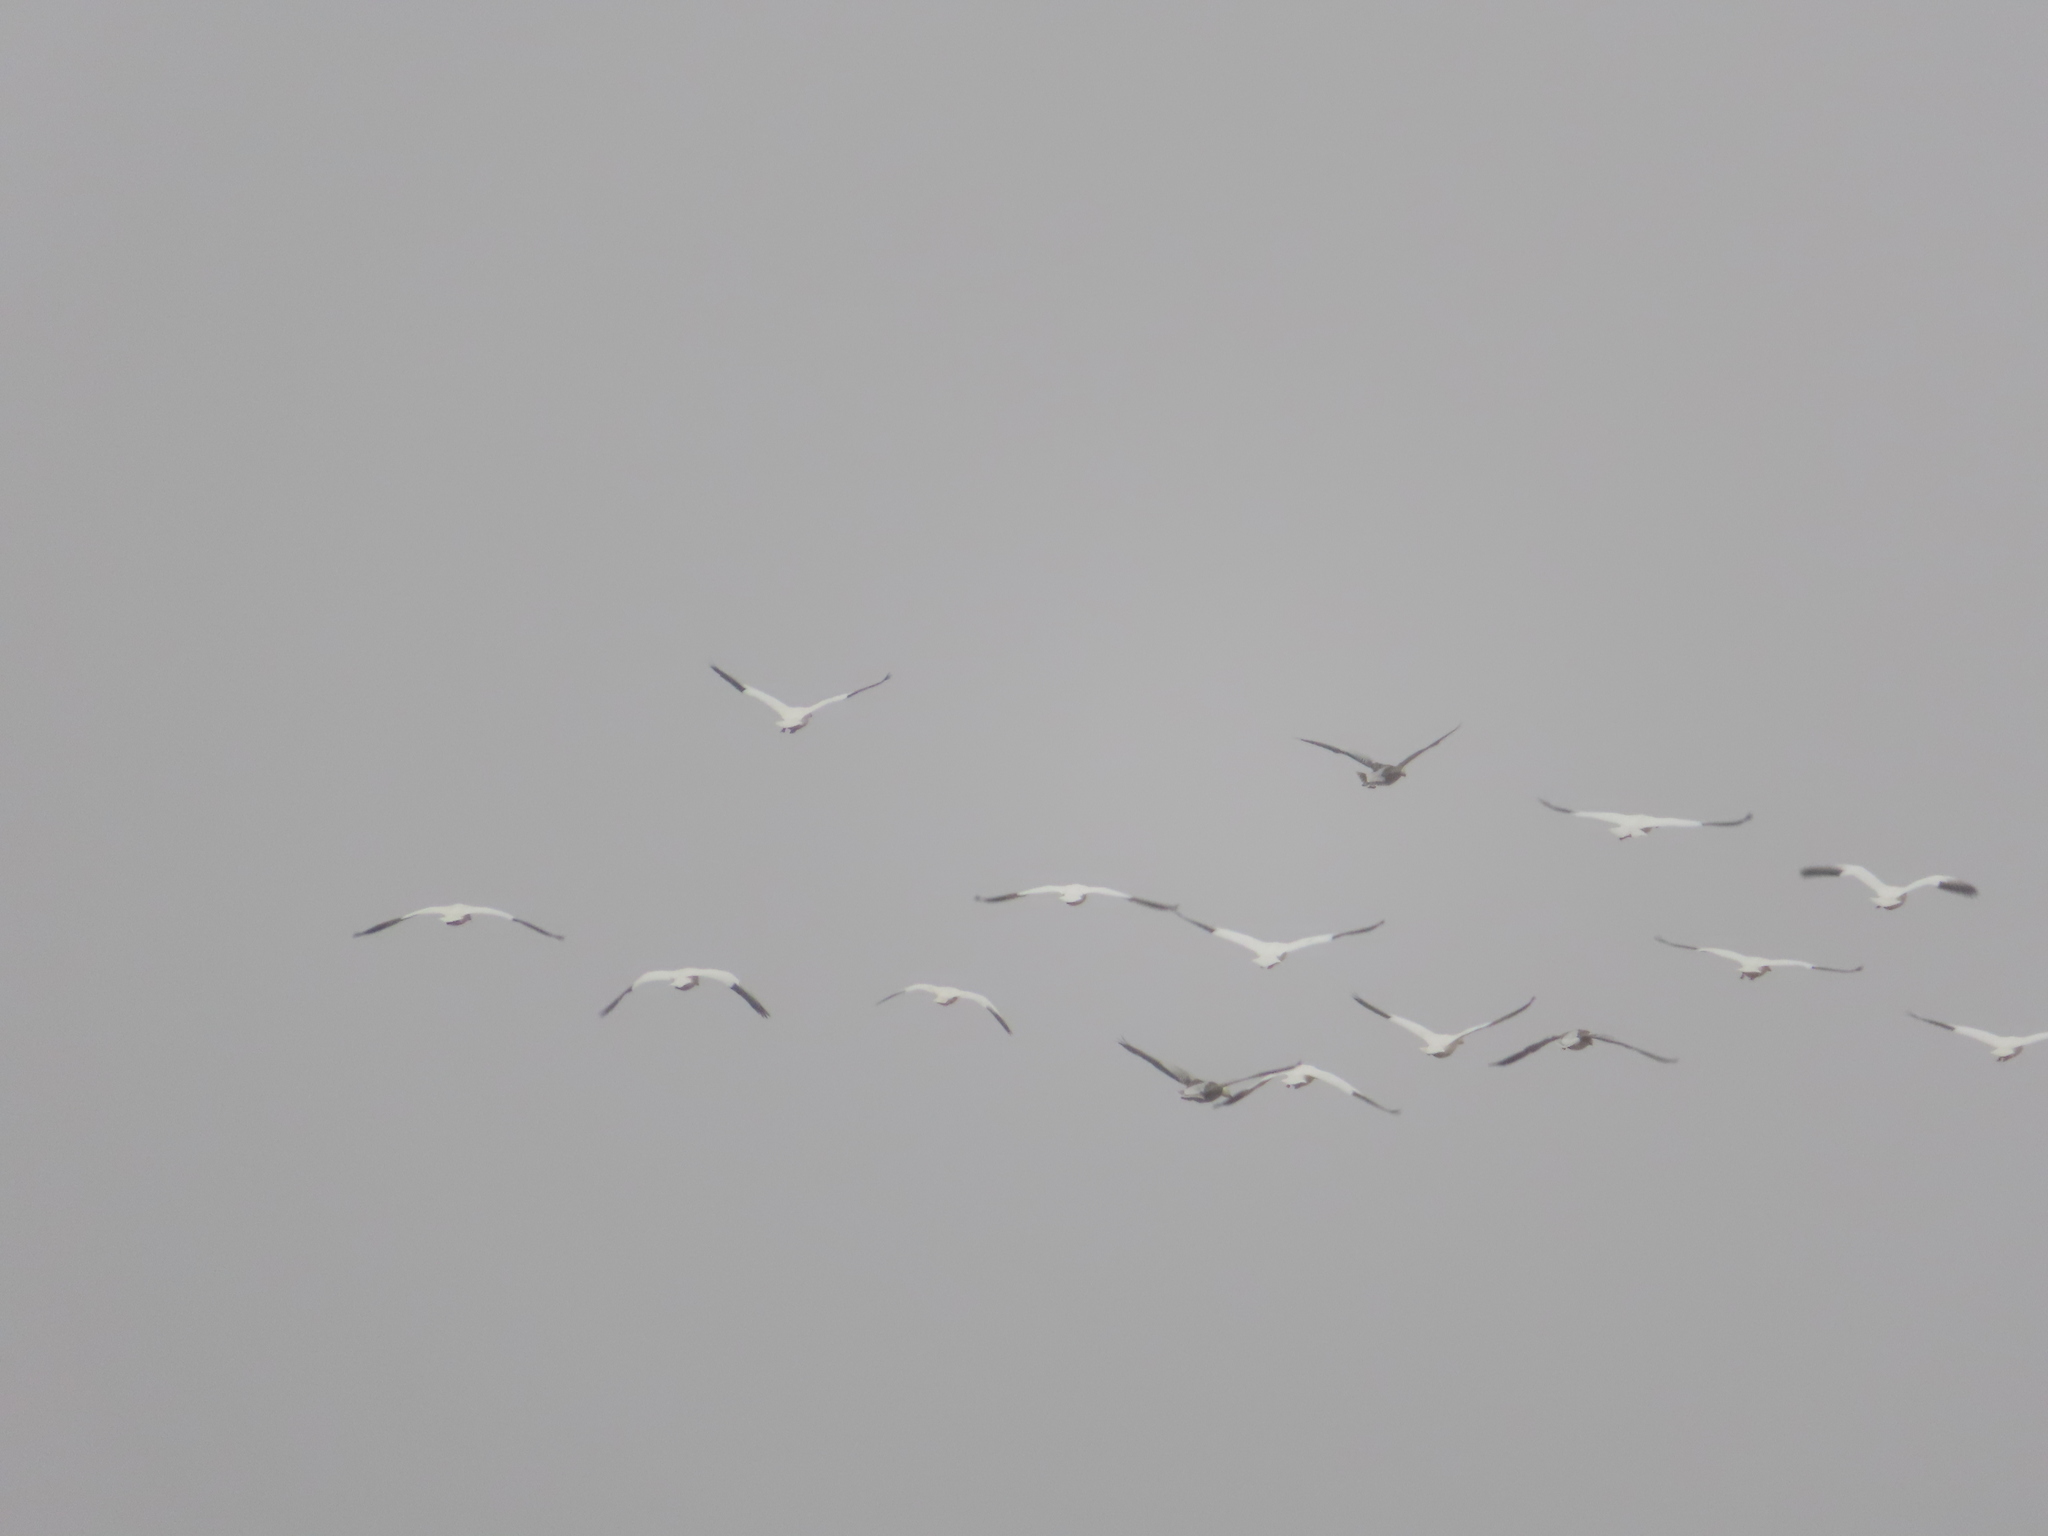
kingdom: Animalia
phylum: Chordata
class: Aves
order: Anseriformes
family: Anatidae
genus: Anser
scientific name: Anser caerulescens
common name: Snow goose
